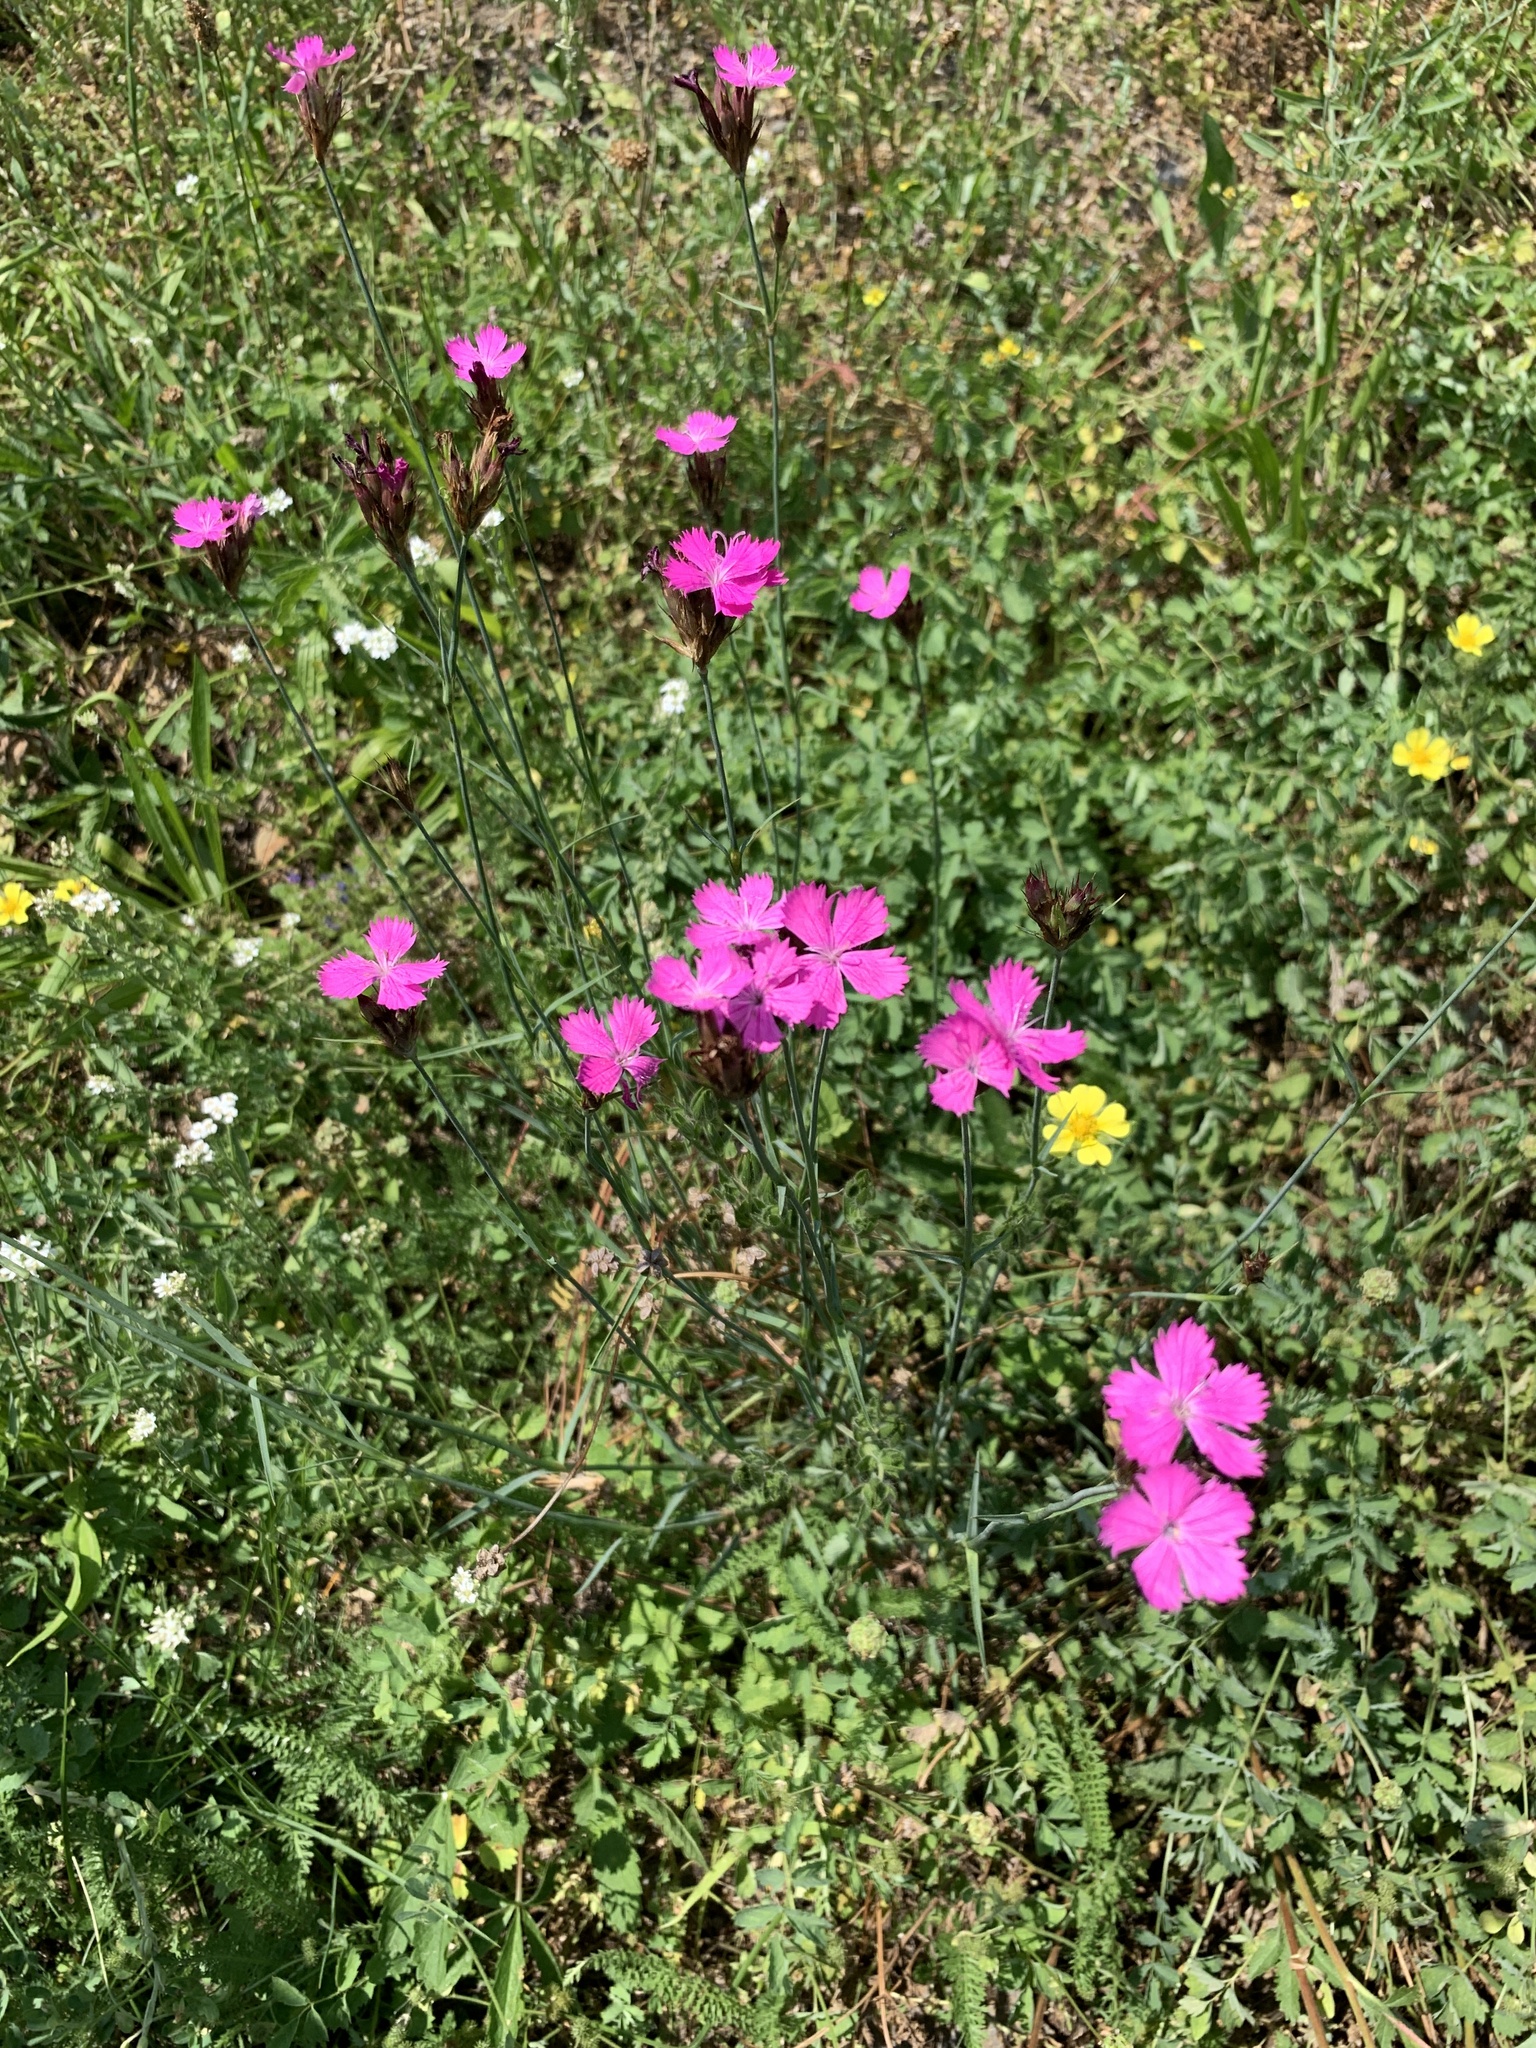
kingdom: Plantae
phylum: Tracheophyta
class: Magnoliopsida
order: Caryophyllales
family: Caryophyllaceae
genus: Dianthus
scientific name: Dianthus carthusianorum
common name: Carthusian pink
